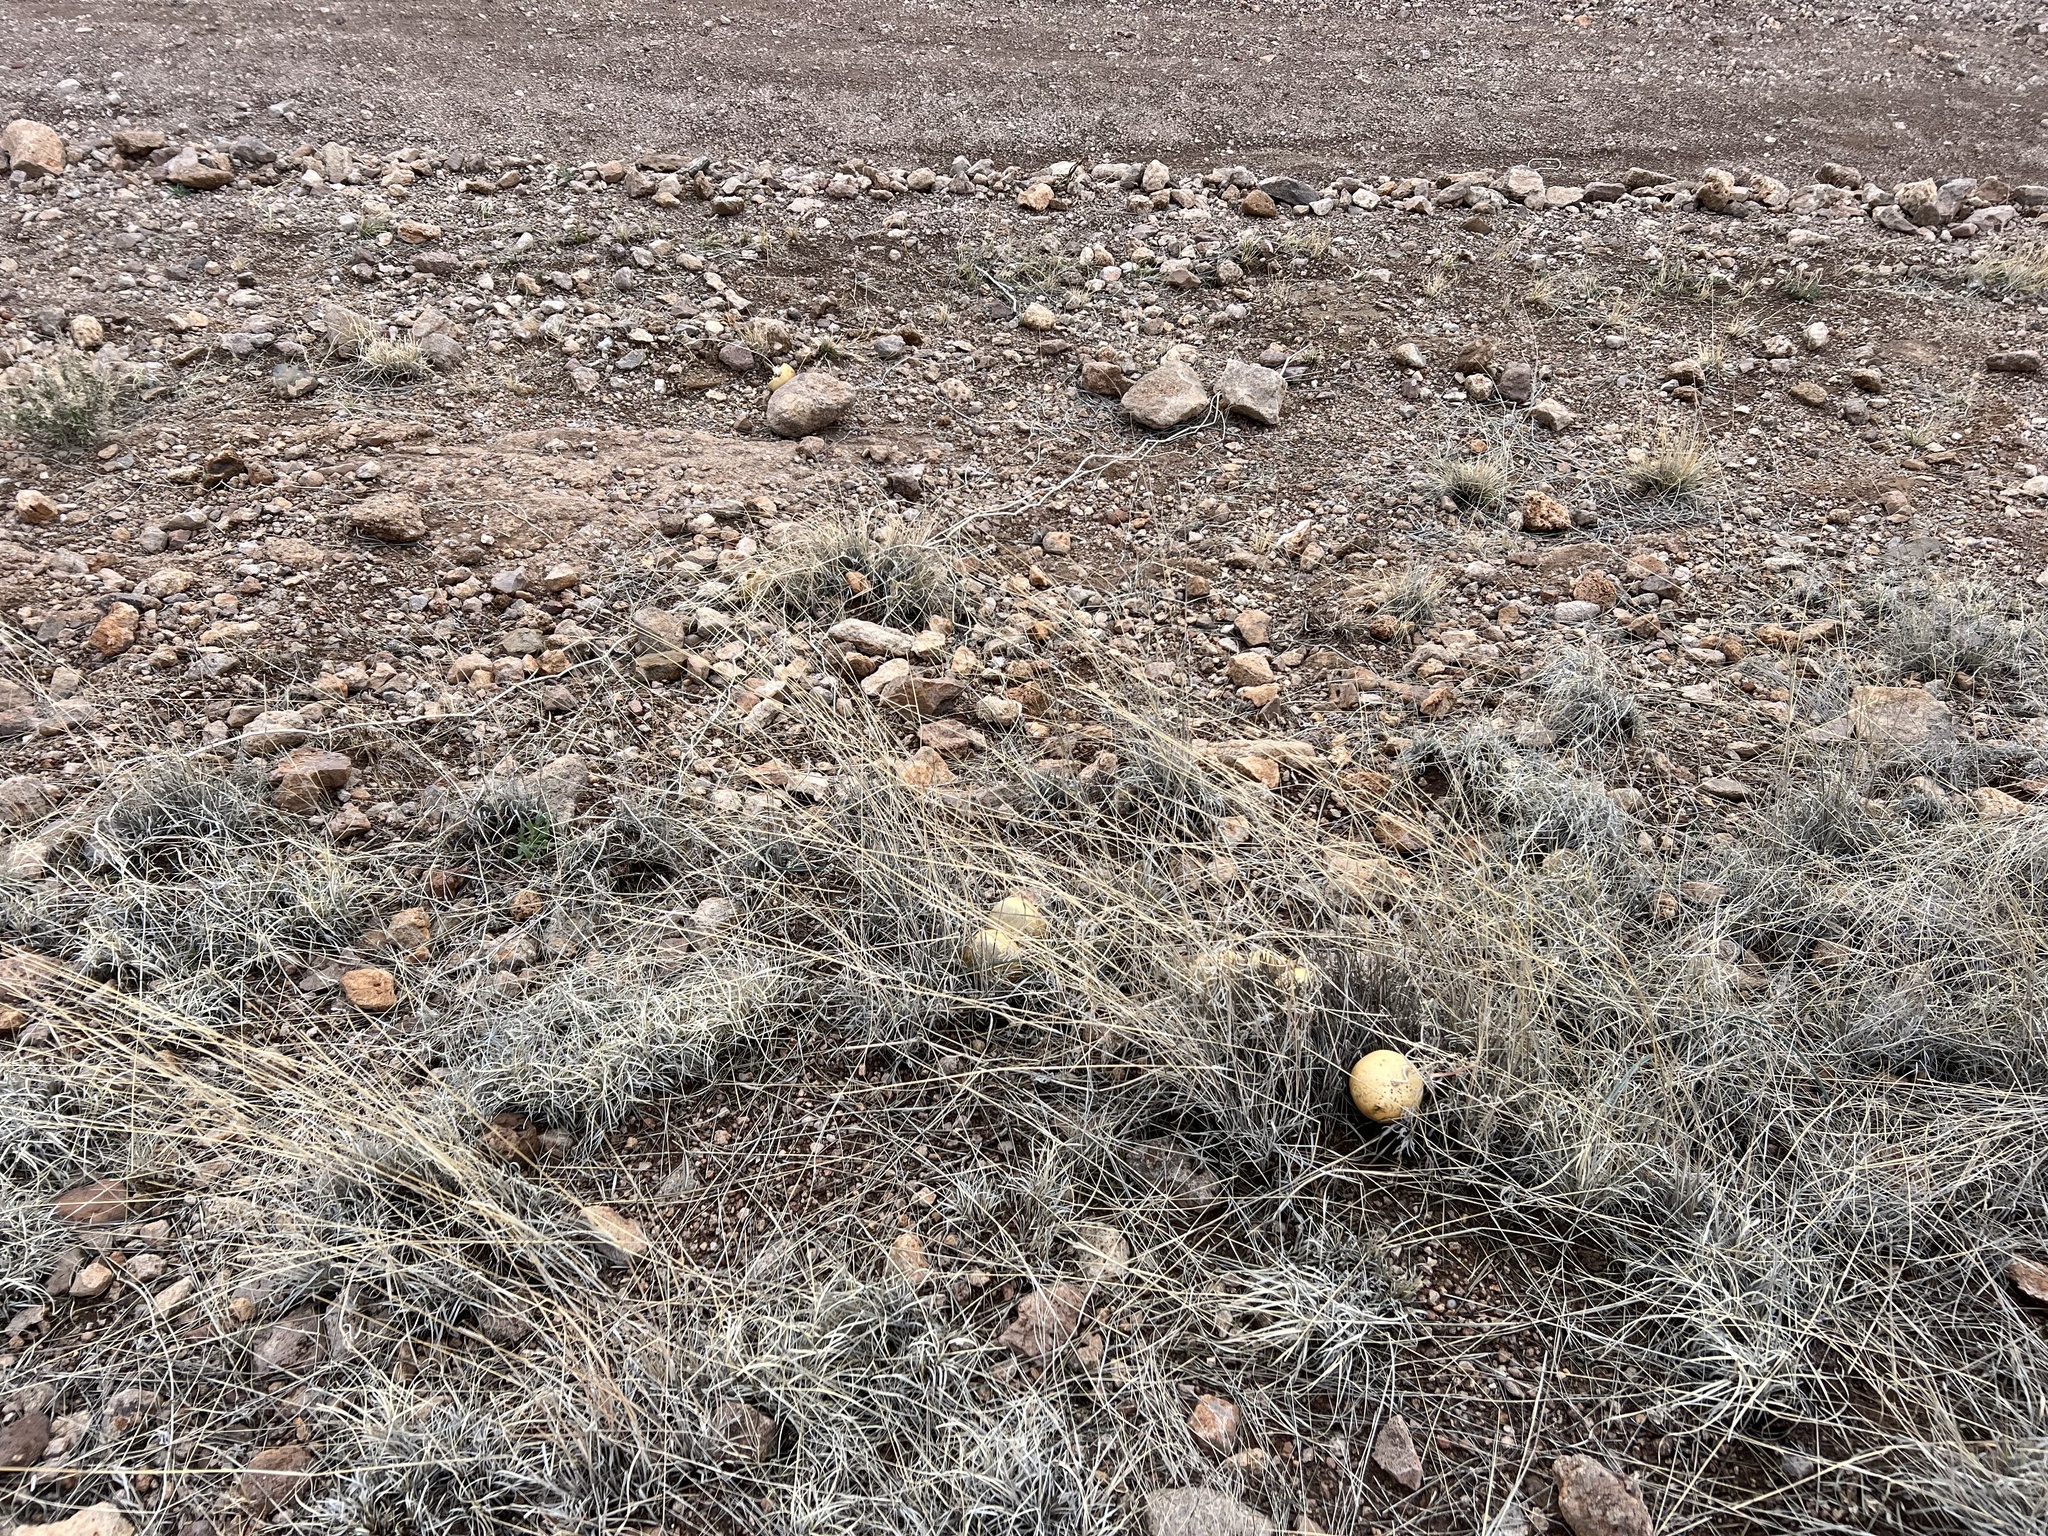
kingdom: Plantae
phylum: Tracheophyta
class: Magnoliopsida
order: Cucurbitales
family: Cucurbitaceae
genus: Cucurbita
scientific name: Cucurbita foetidissima
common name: Buffalo gourd
